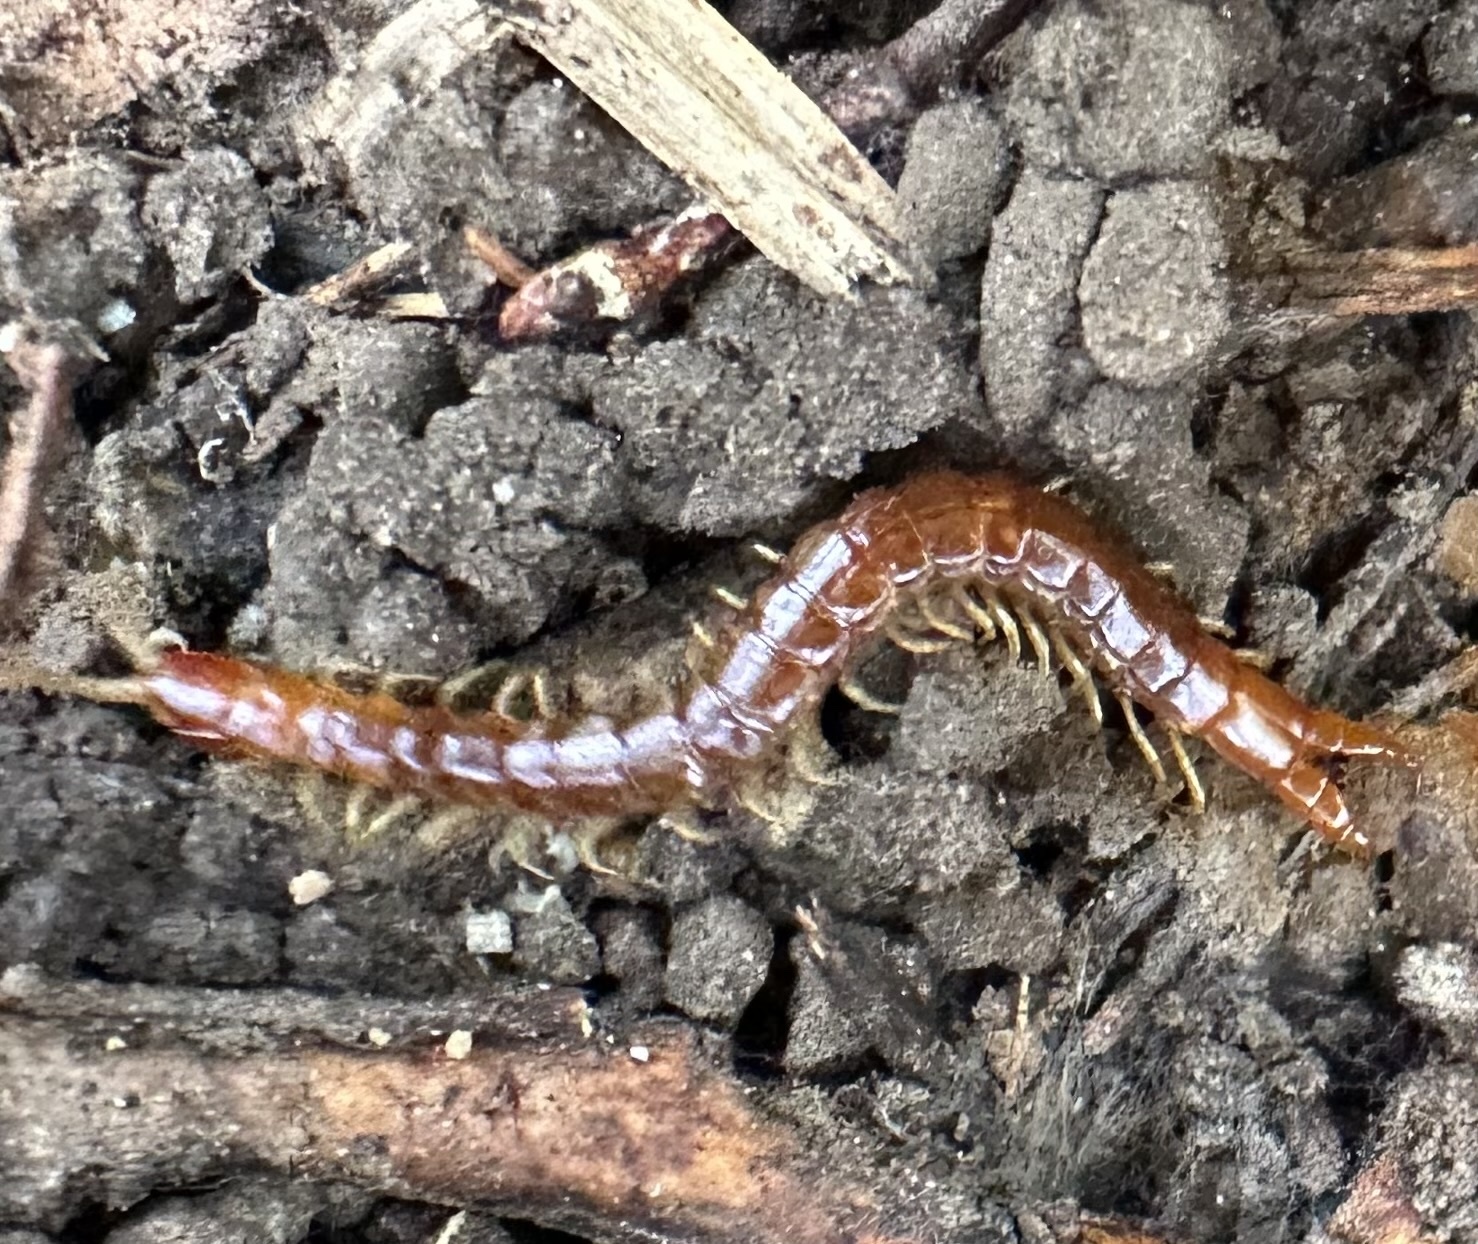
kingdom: Animalia
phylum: Arthropoda
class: Chilopoda
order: Scolopendromorpha
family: Cryptopidae
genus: Theatops
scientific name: Theatops posticus
